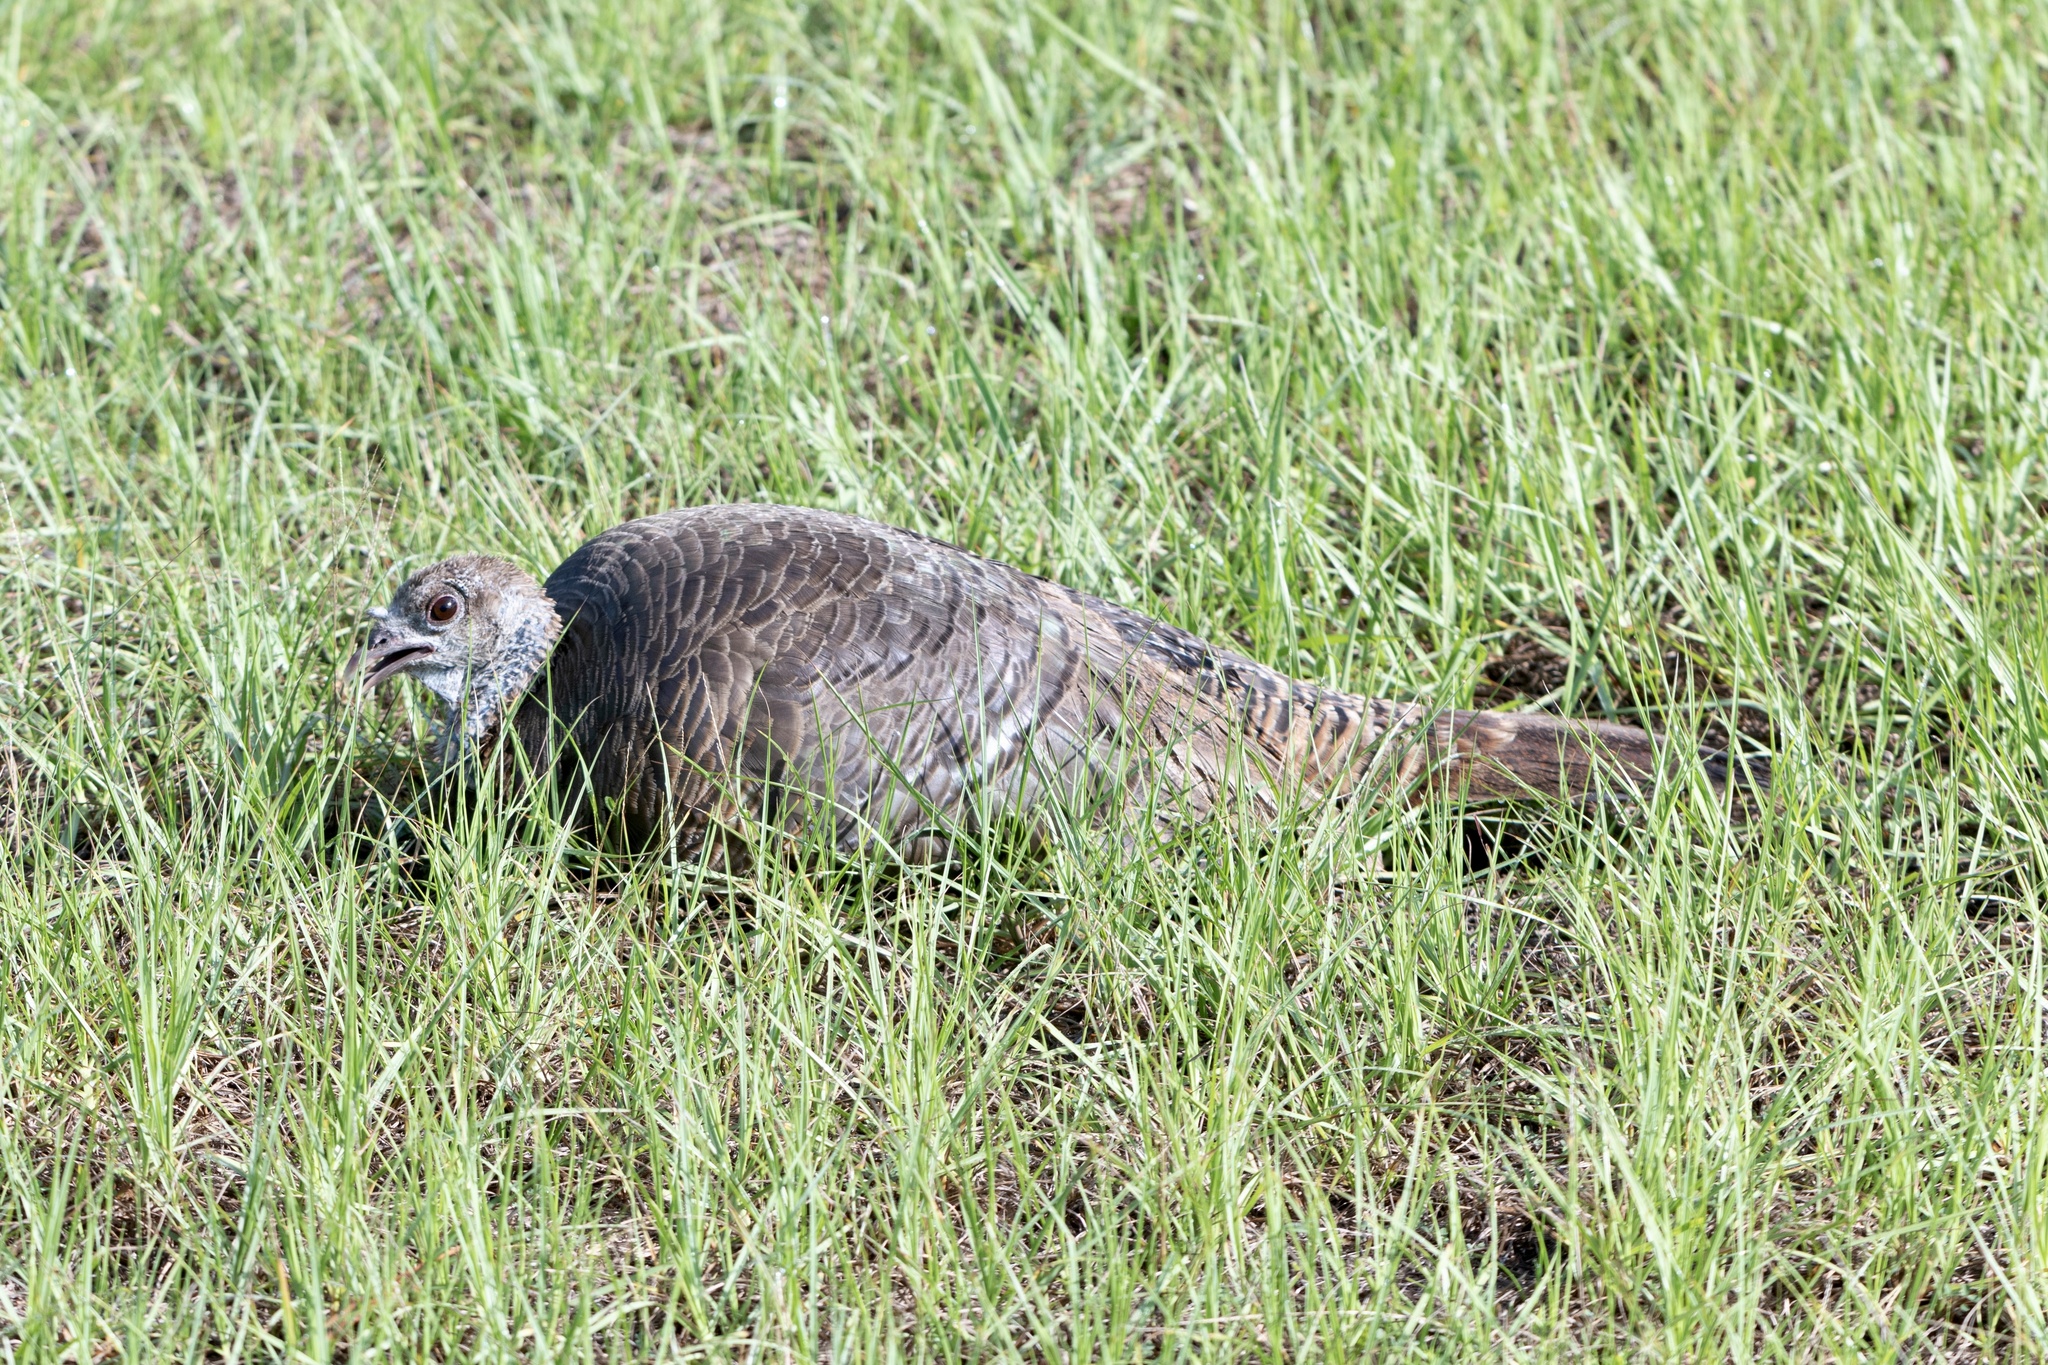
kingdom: Animalia
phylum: Chordata
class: Aves
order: Galliformes
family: Phasianidae
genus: Meleagris
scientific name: Meleagris gallopavo
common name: Wild turkey
